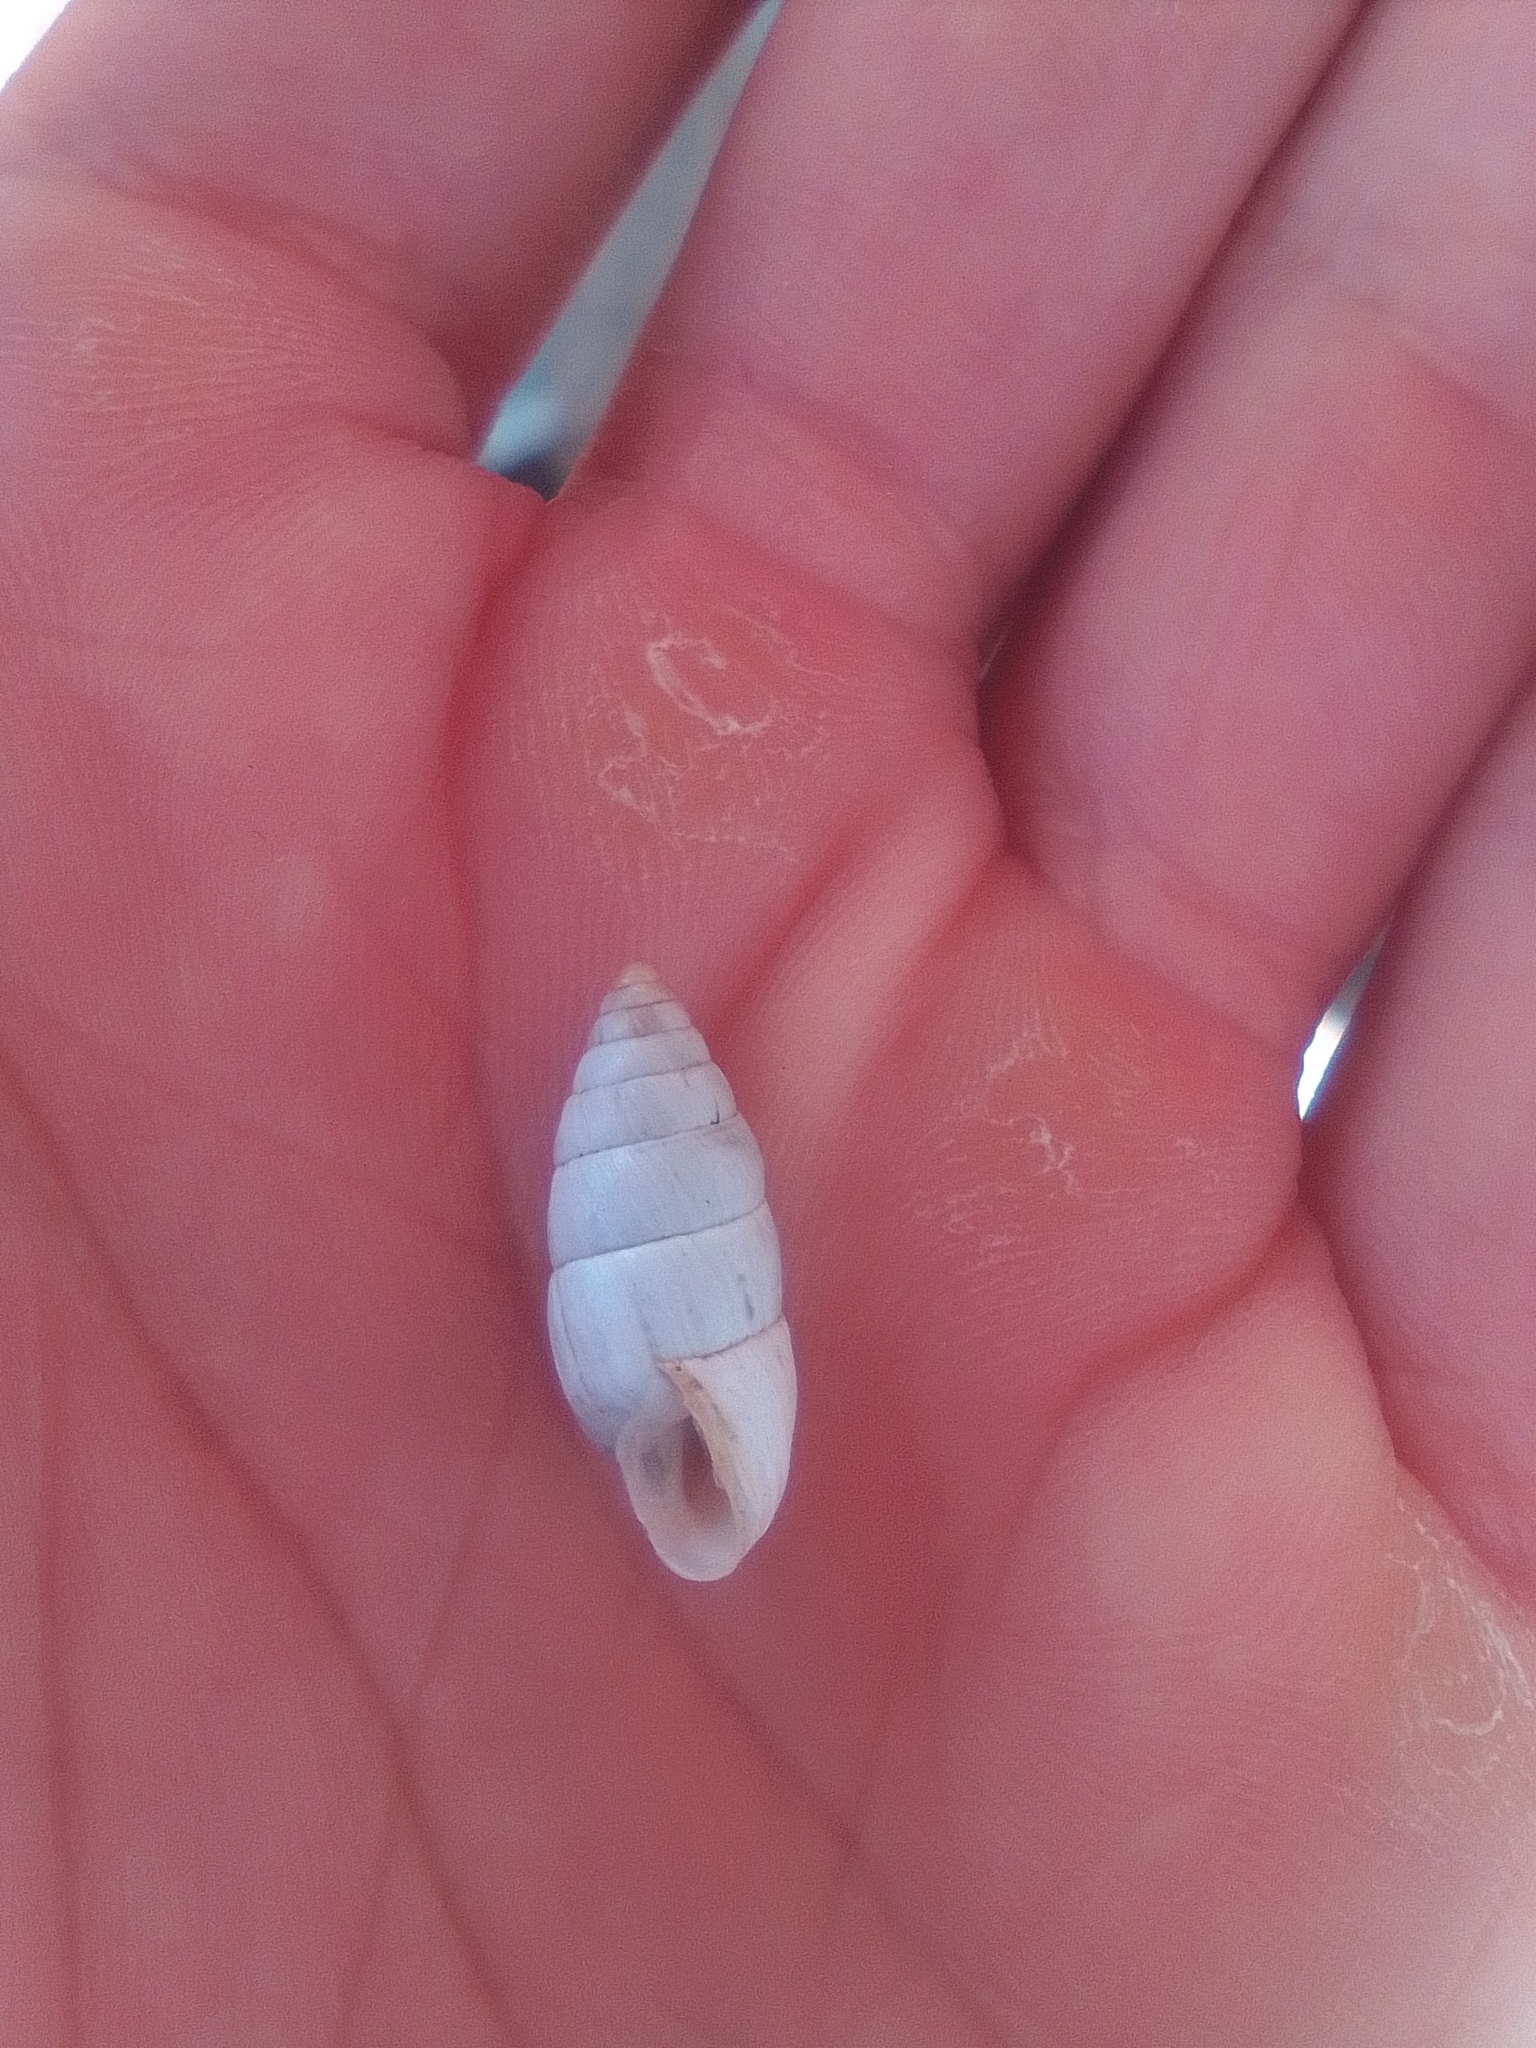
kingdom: Animalia
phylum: Mollusca
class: Gastropoda
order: Stylommatophora
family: Enidae
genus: Brephulopsis
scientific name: Brephulopsis cylindrica
